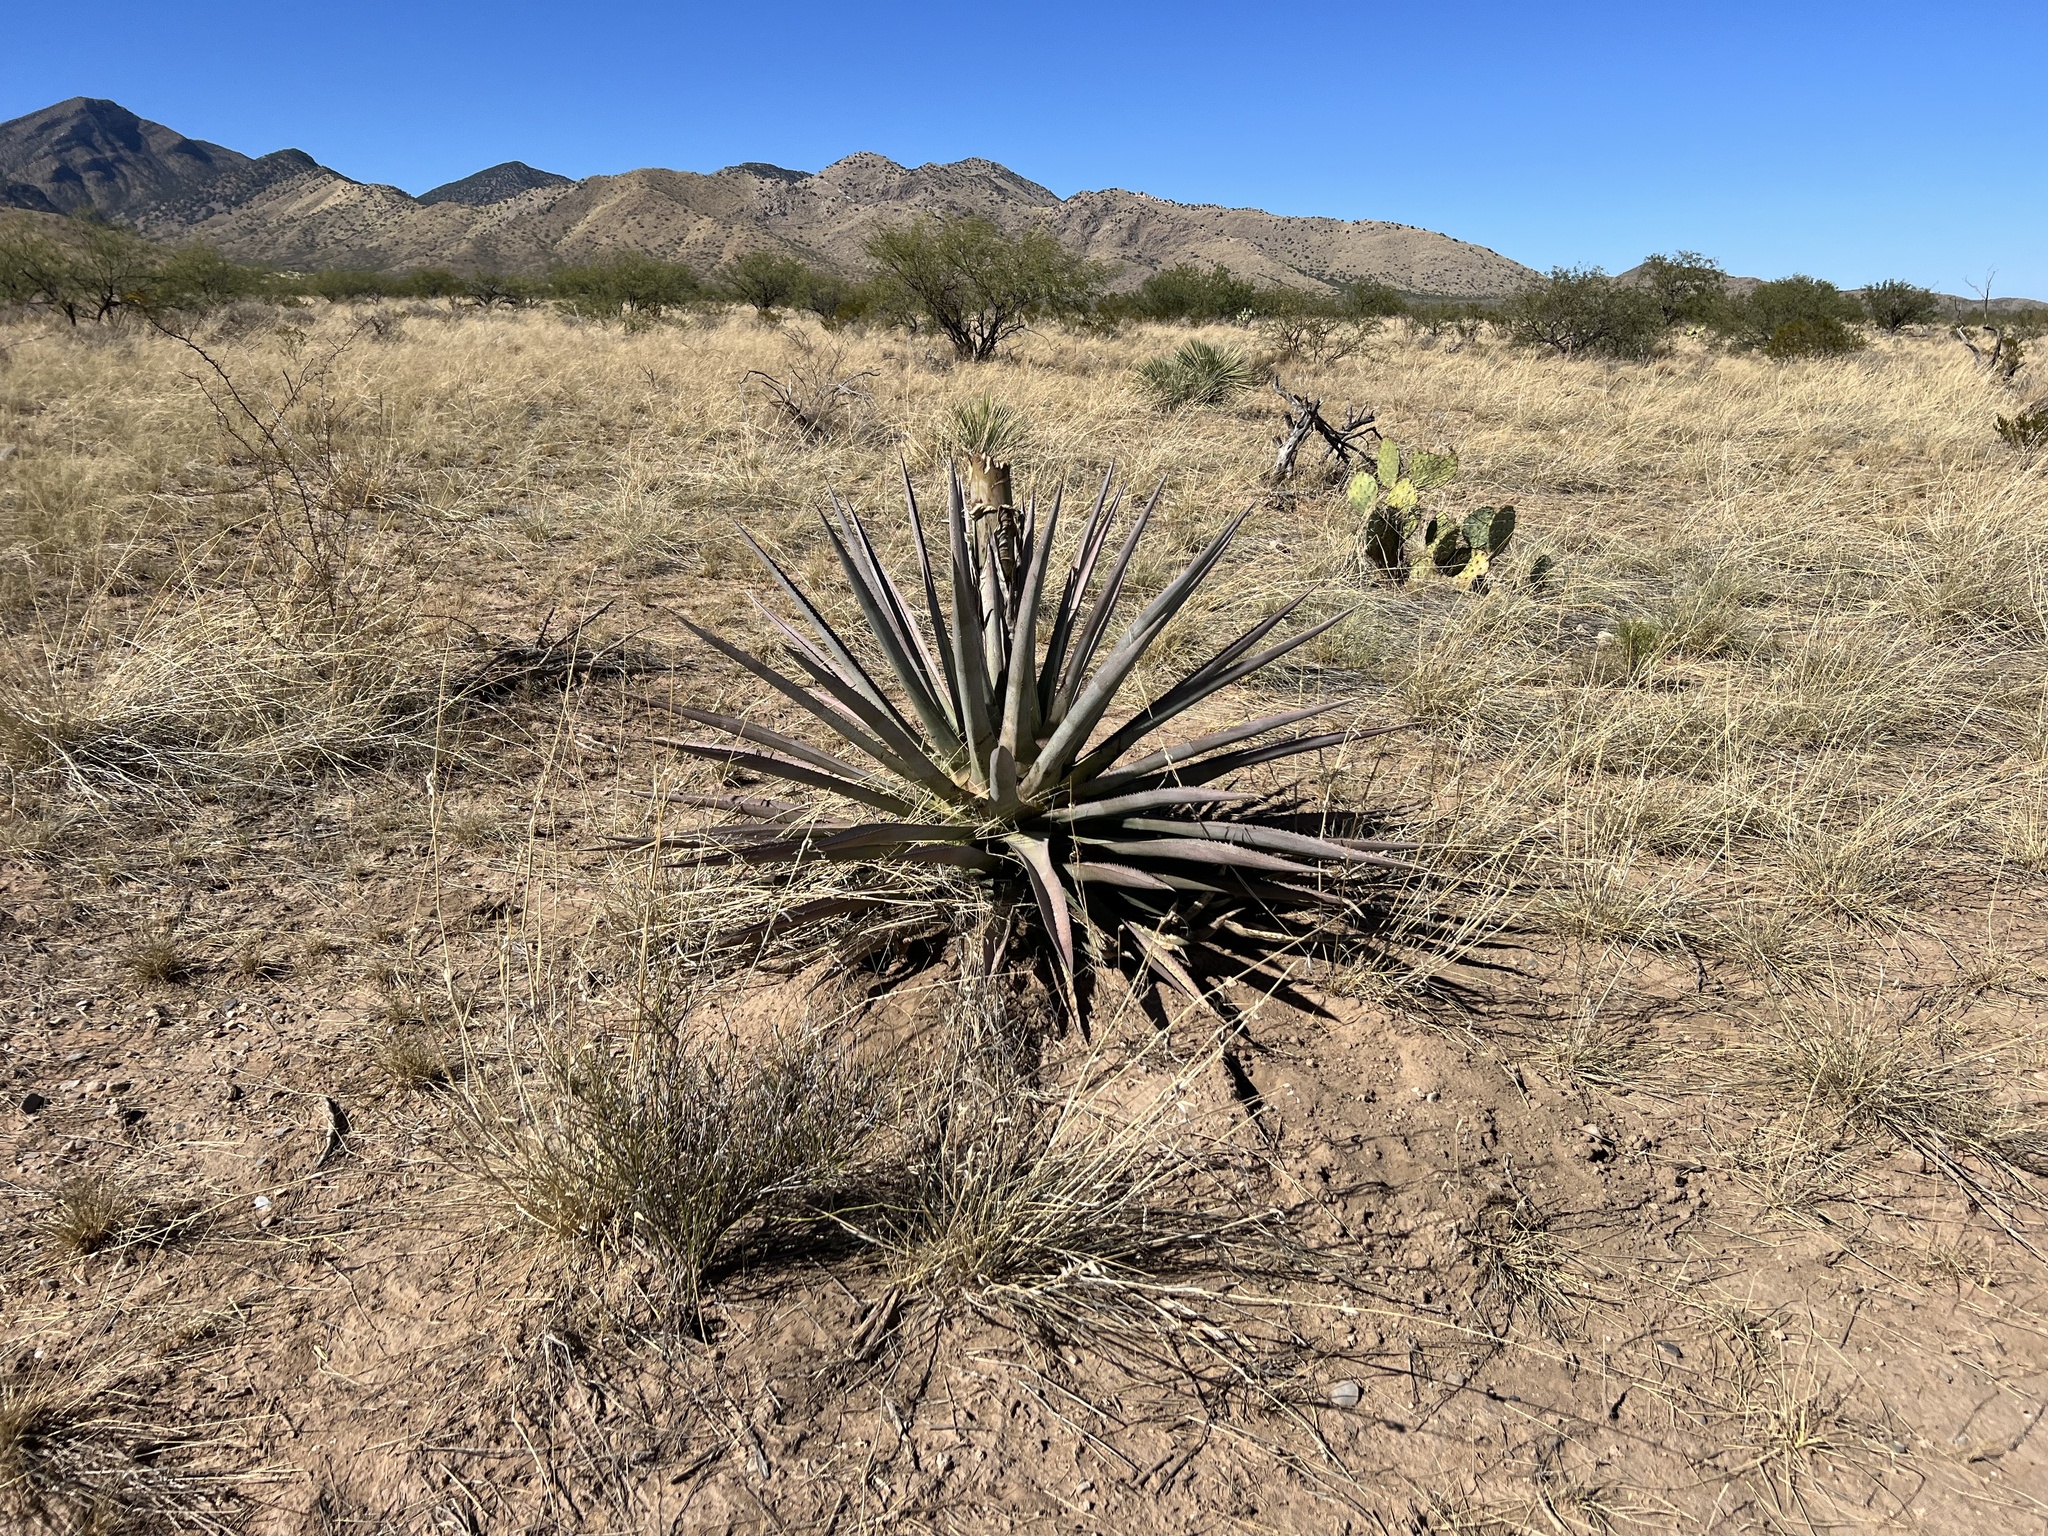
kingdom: Plantae
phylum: Tracheophyta
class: Liliopsida
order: Asparagales
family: Asparagaceae
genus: Agave
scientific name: Agave palmeri
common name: Palmer agave
